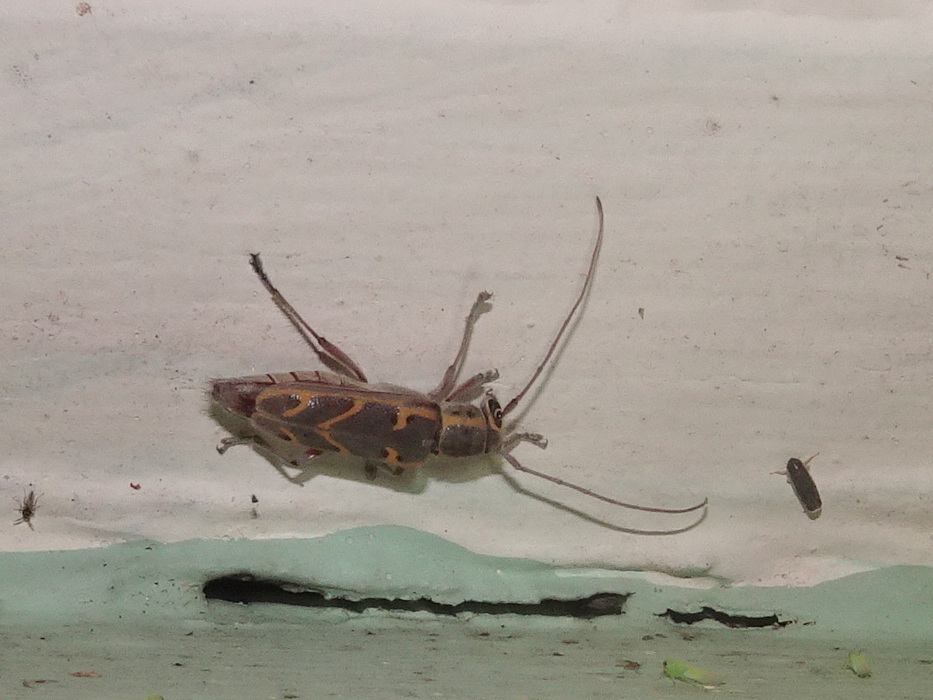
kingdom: Animalia
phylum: Arthropoda
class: Insecta
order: Coleoptera
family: Cerambycidae
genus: Saperda
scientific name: Saperda tridentata
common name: Elm borer
